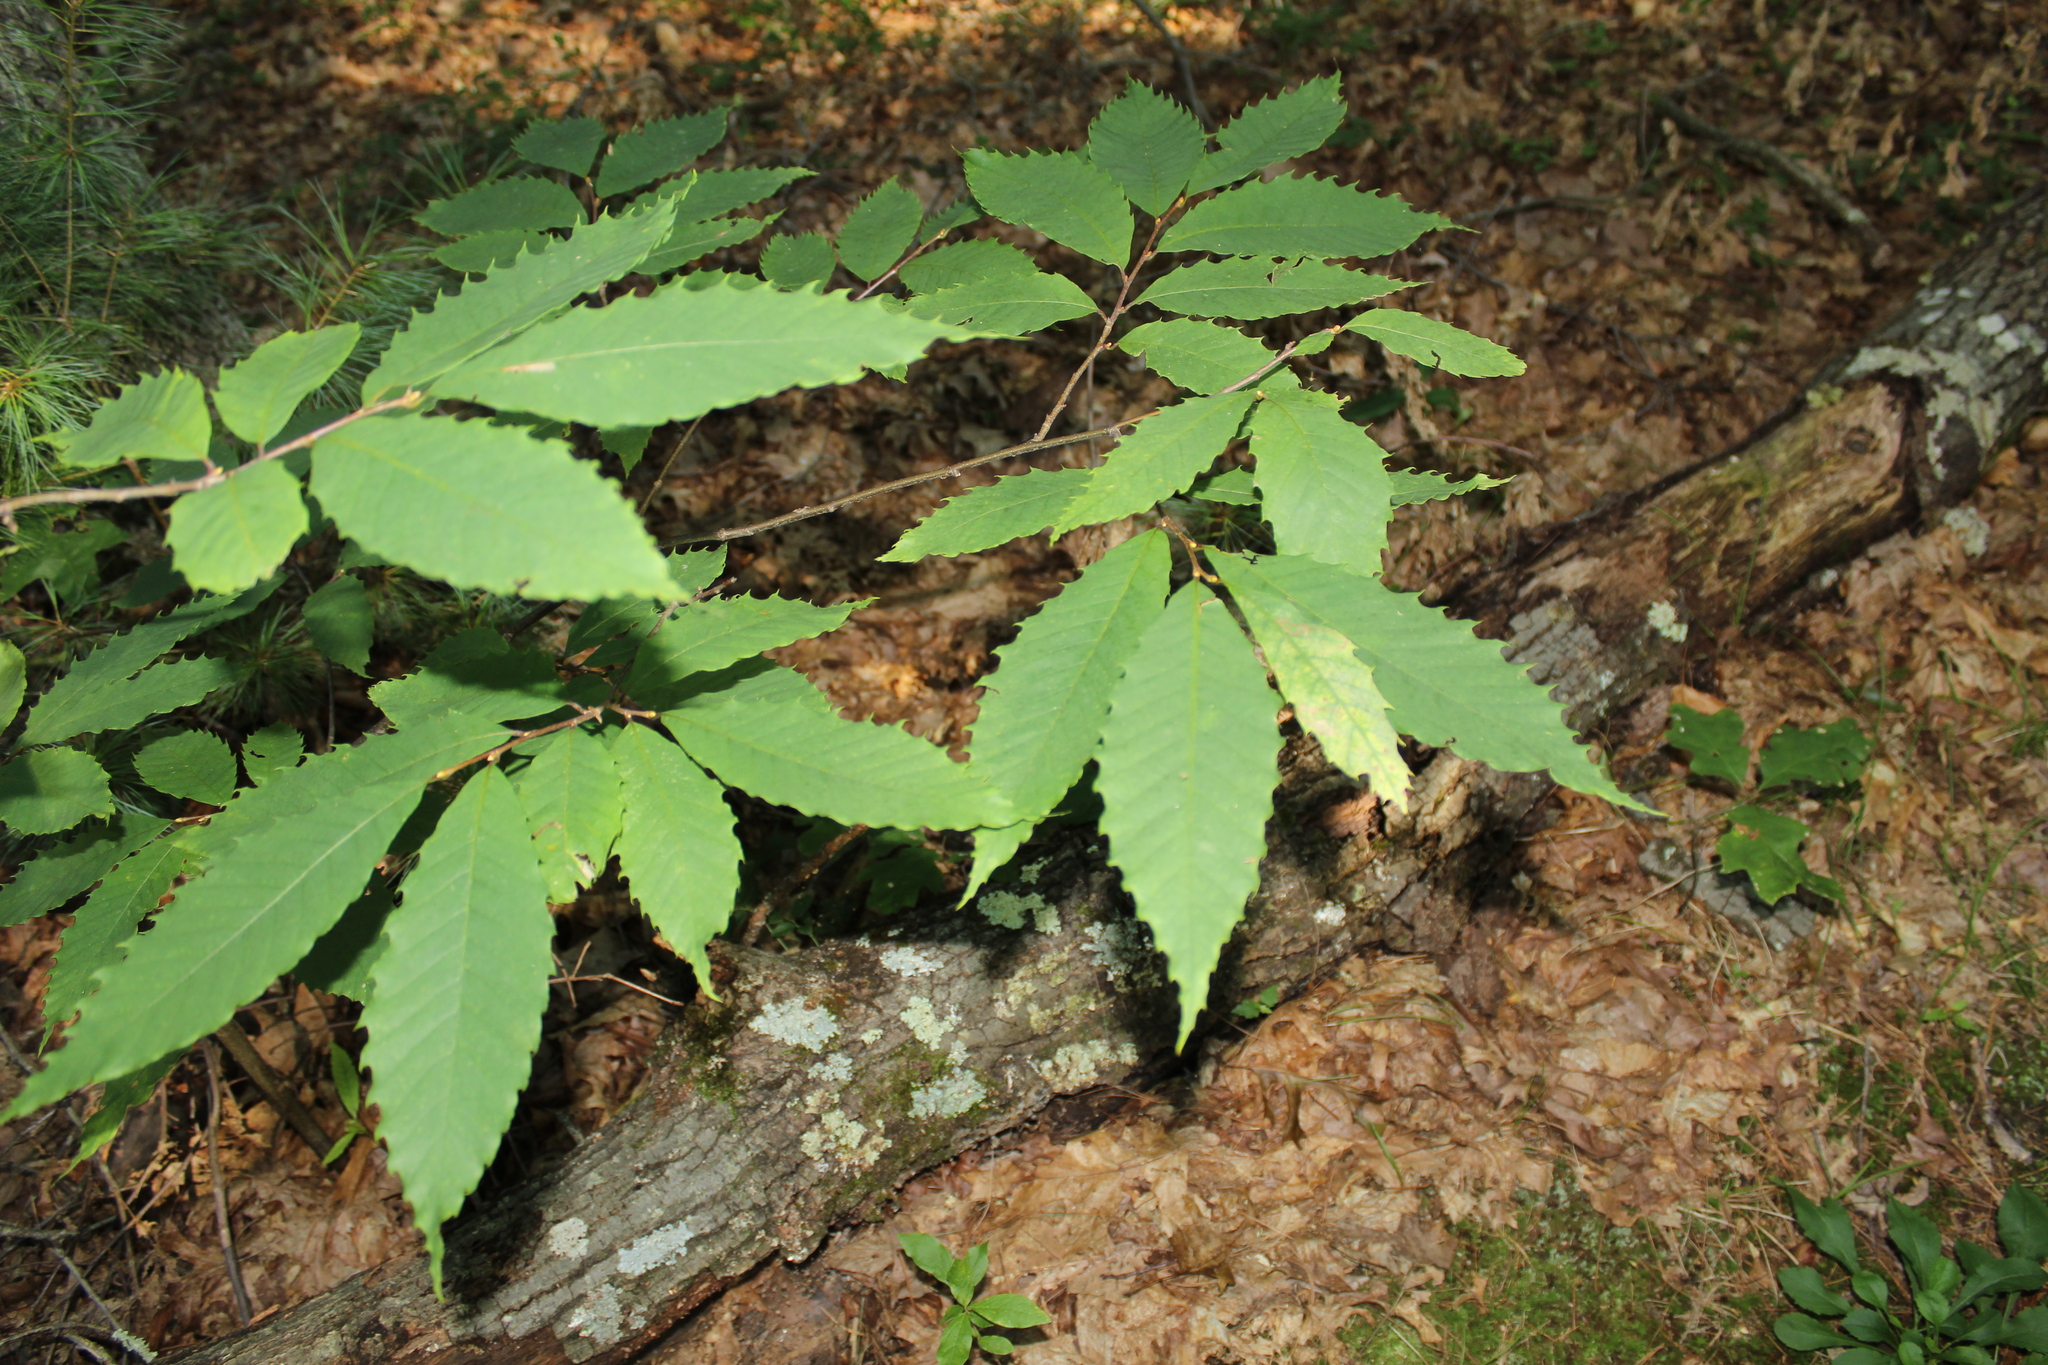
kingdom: Plantae
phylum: Tracheophyta
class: Magnoliopsida
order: Fagales
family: Fagaceae
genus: Castanea
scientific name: Castanea dentata
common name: American chestnut
